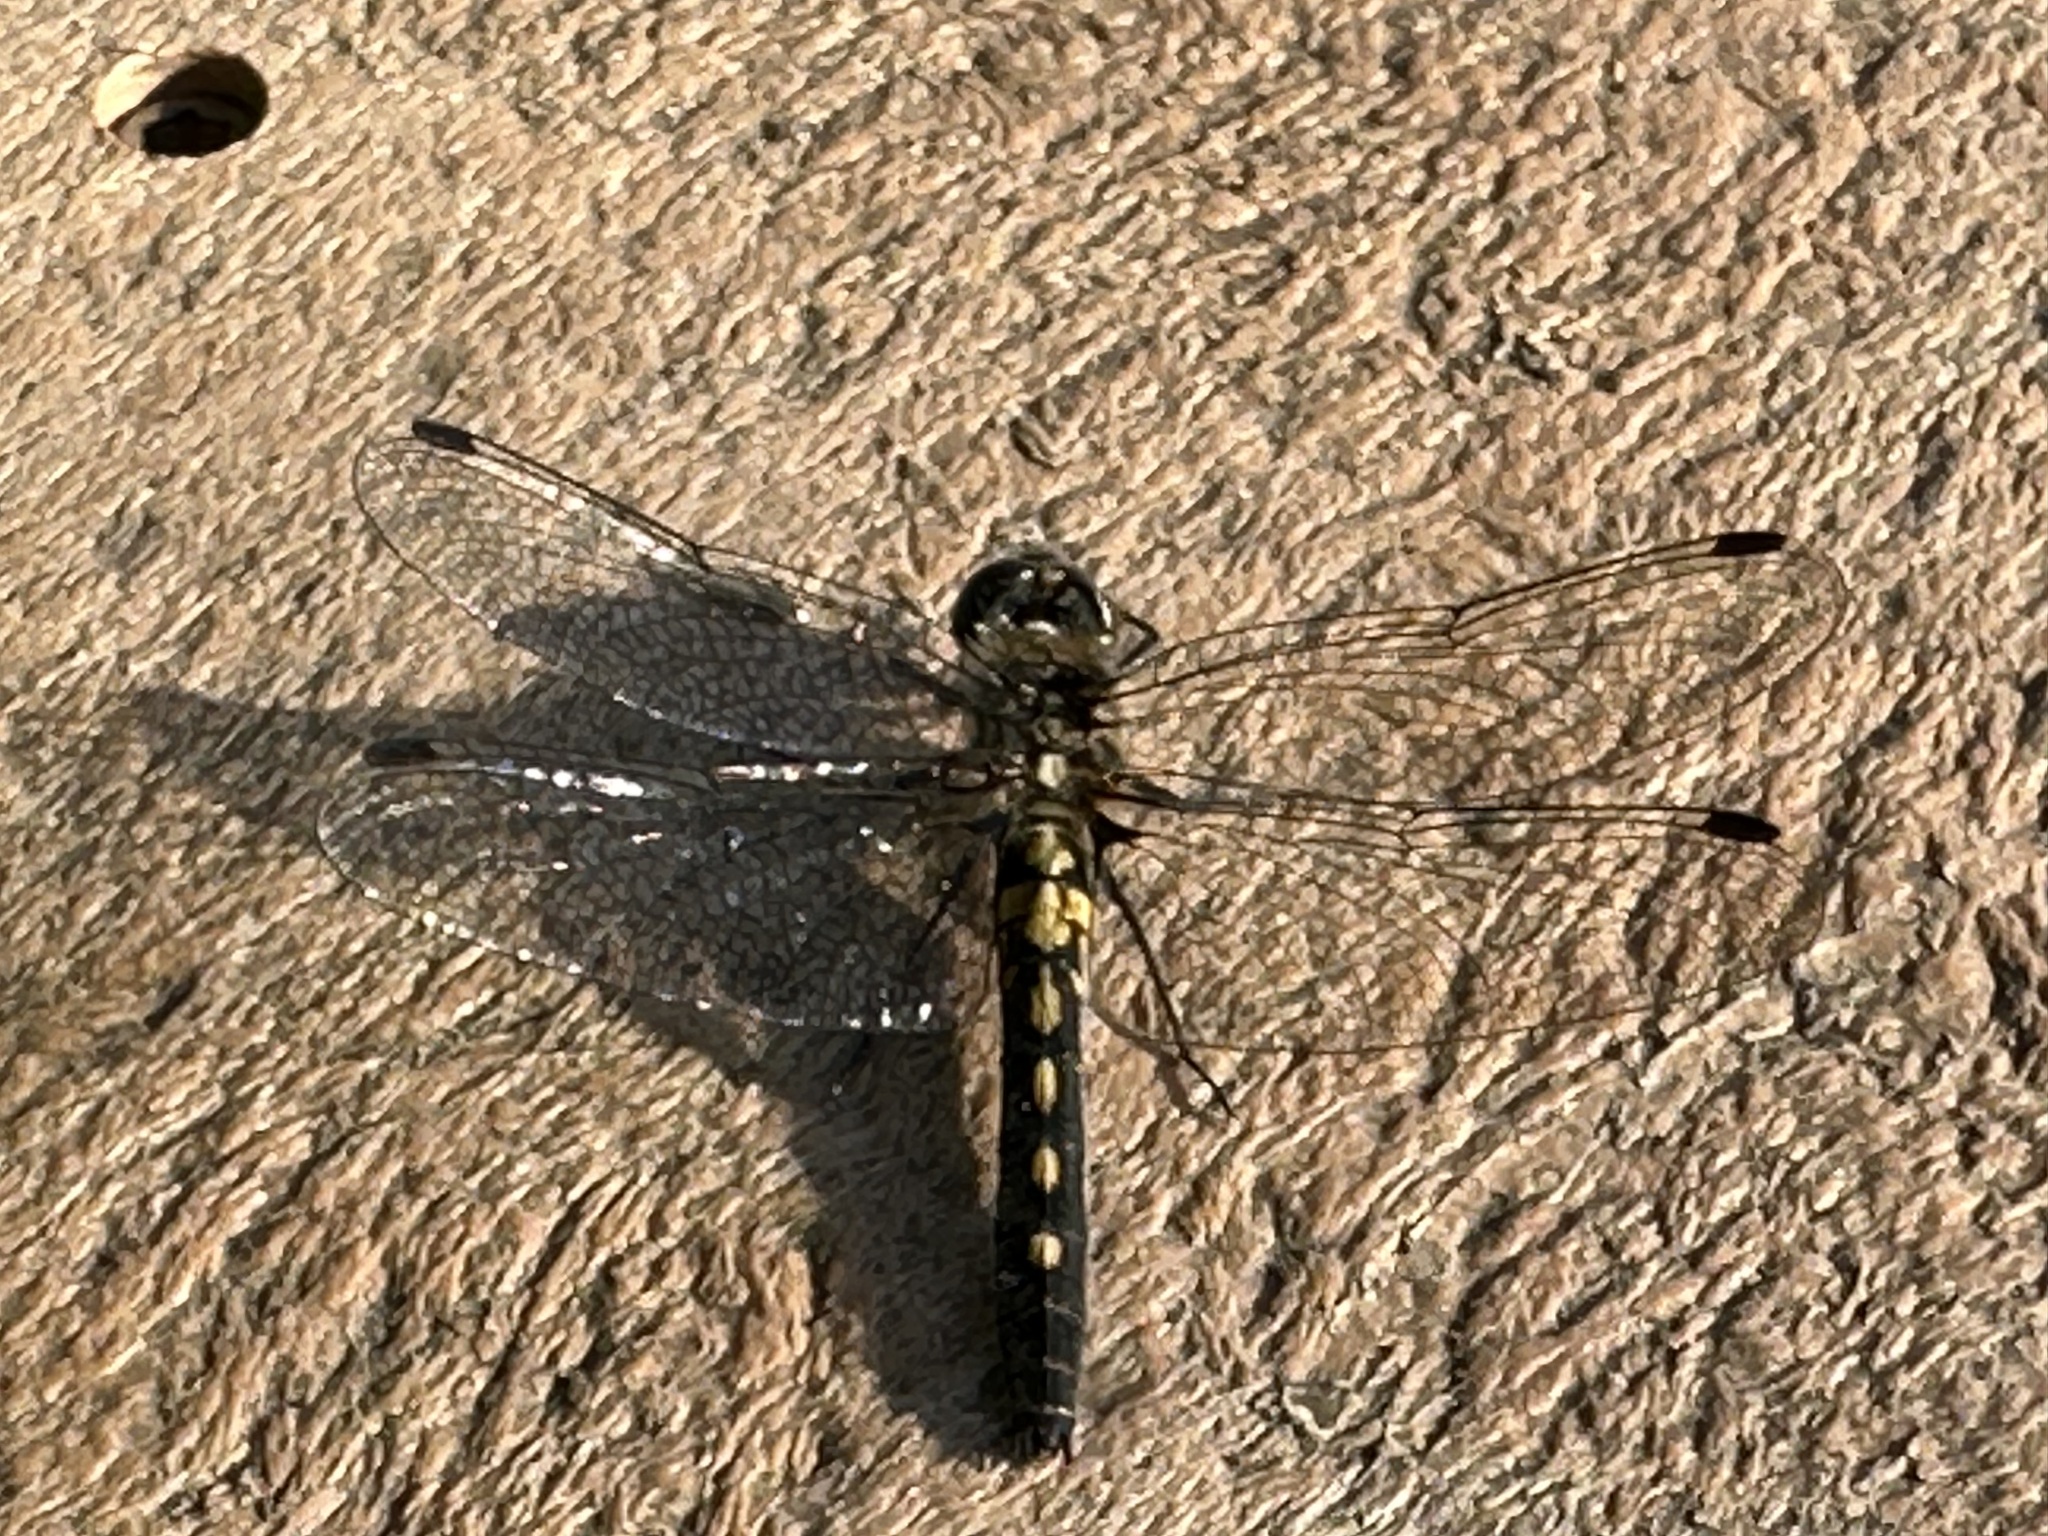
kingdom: Animalia
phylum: Arthropoda
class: Insecta
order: Odonata
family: Libellulidae
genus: Sympetrum
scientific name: Sympetrum danae
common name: Black darter
